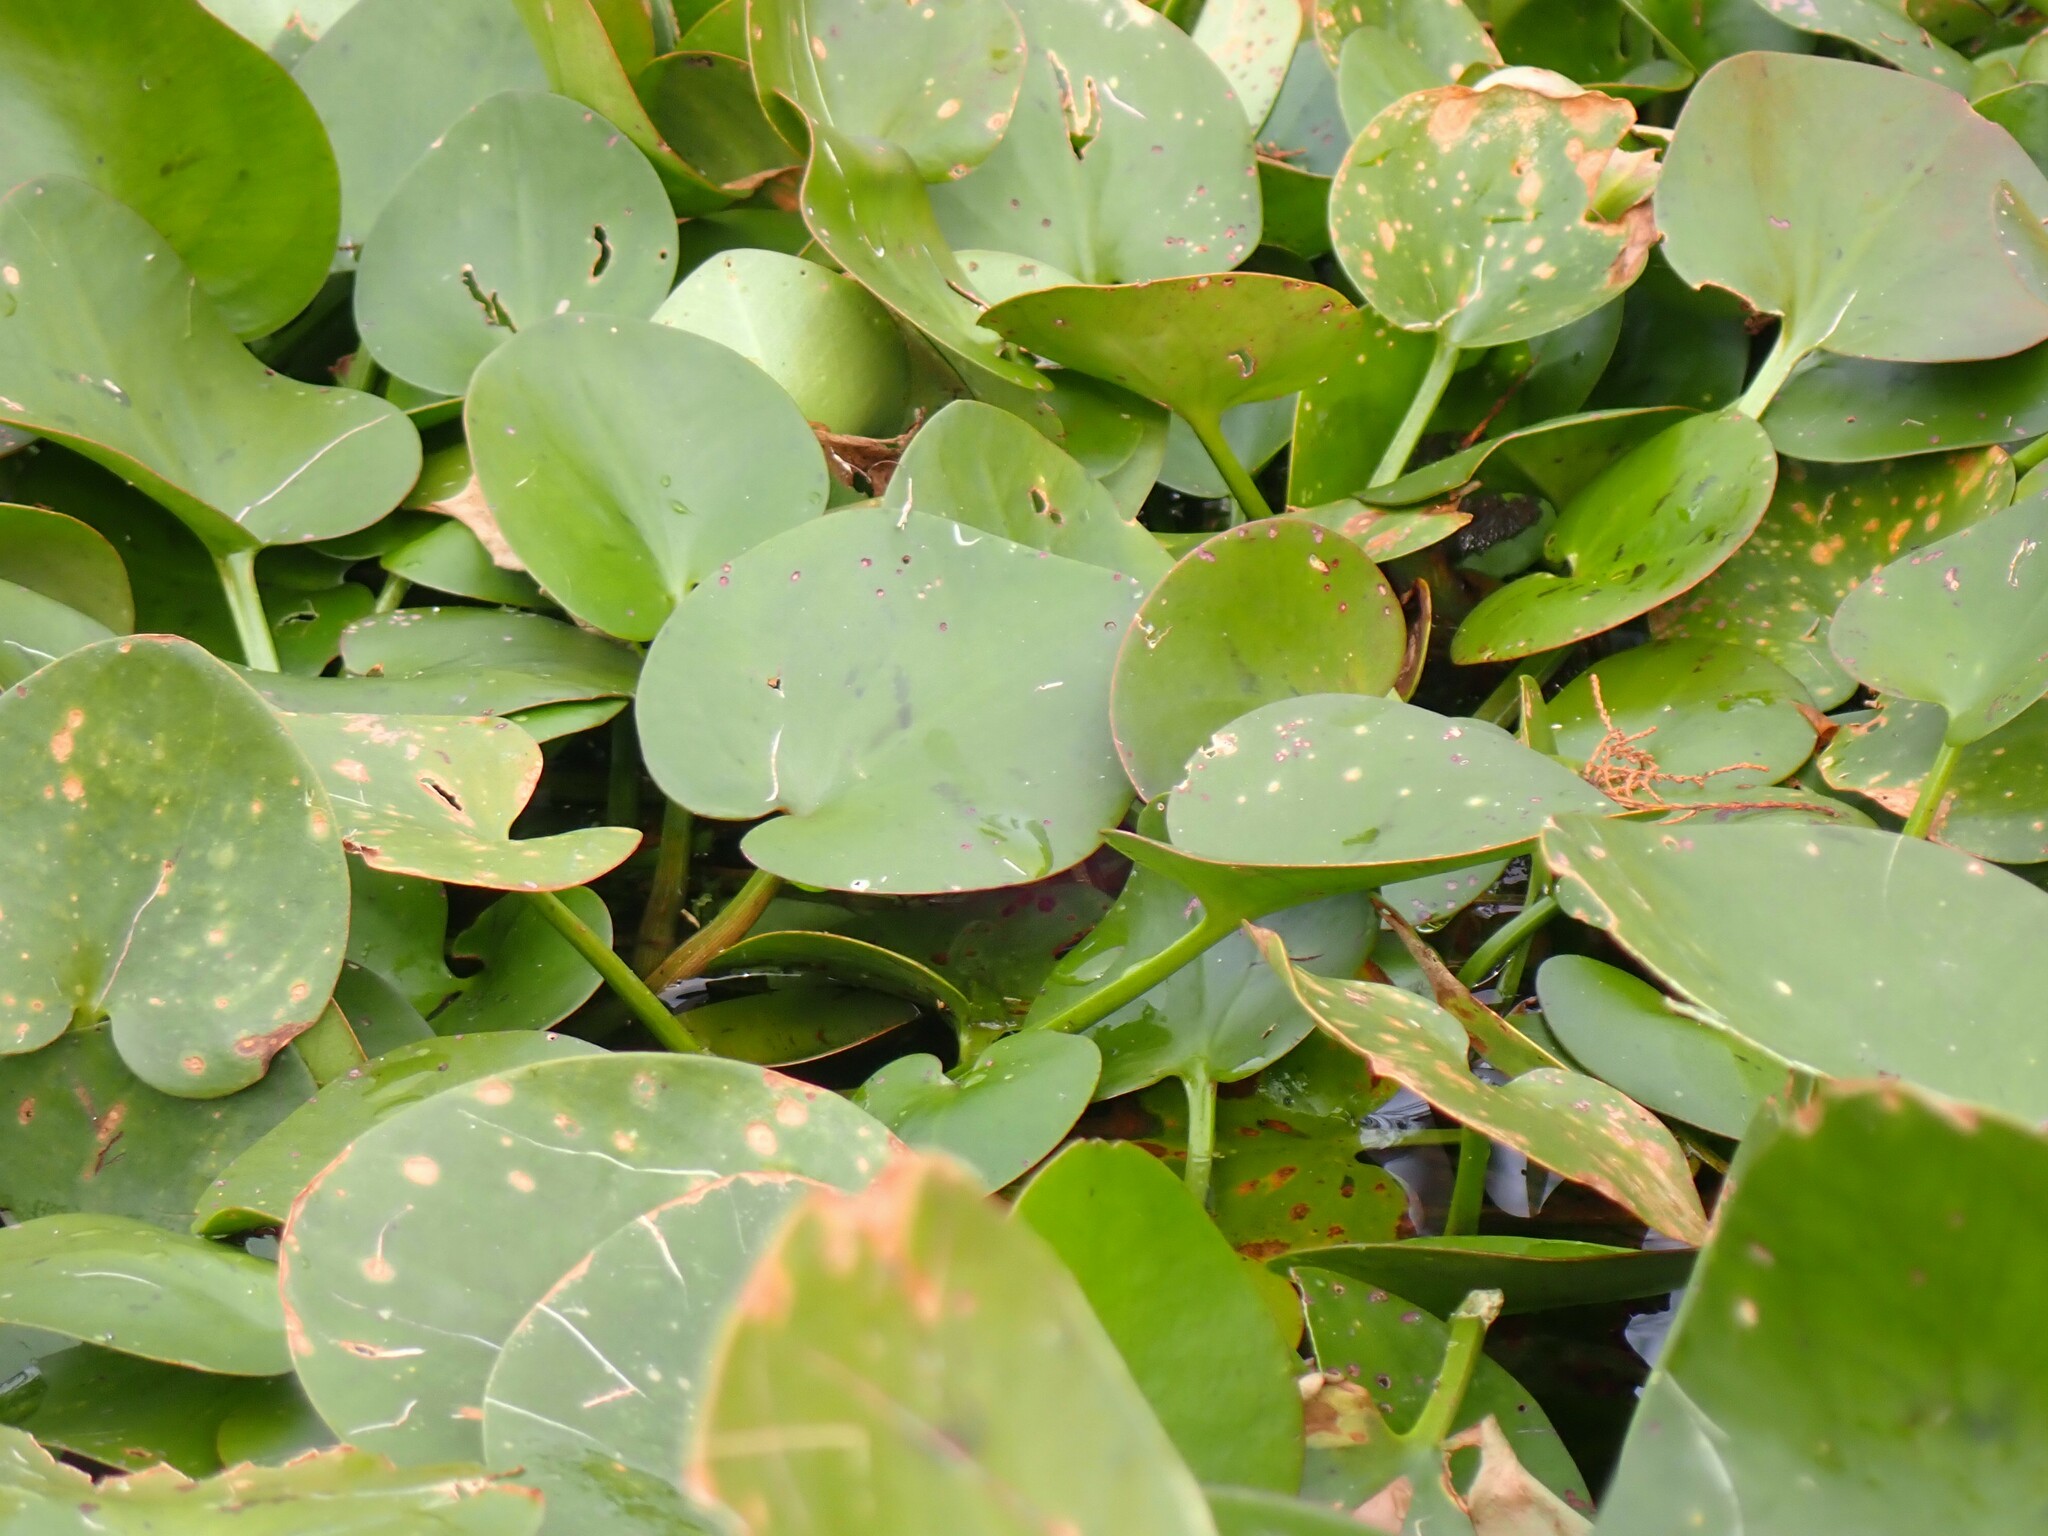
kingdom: Plantae
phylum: Tracheophyta
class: Liliopsida
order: Alismatales
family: Hydrocharitaceae
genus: Hydrocharis
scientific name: Hydrocharis spongia
